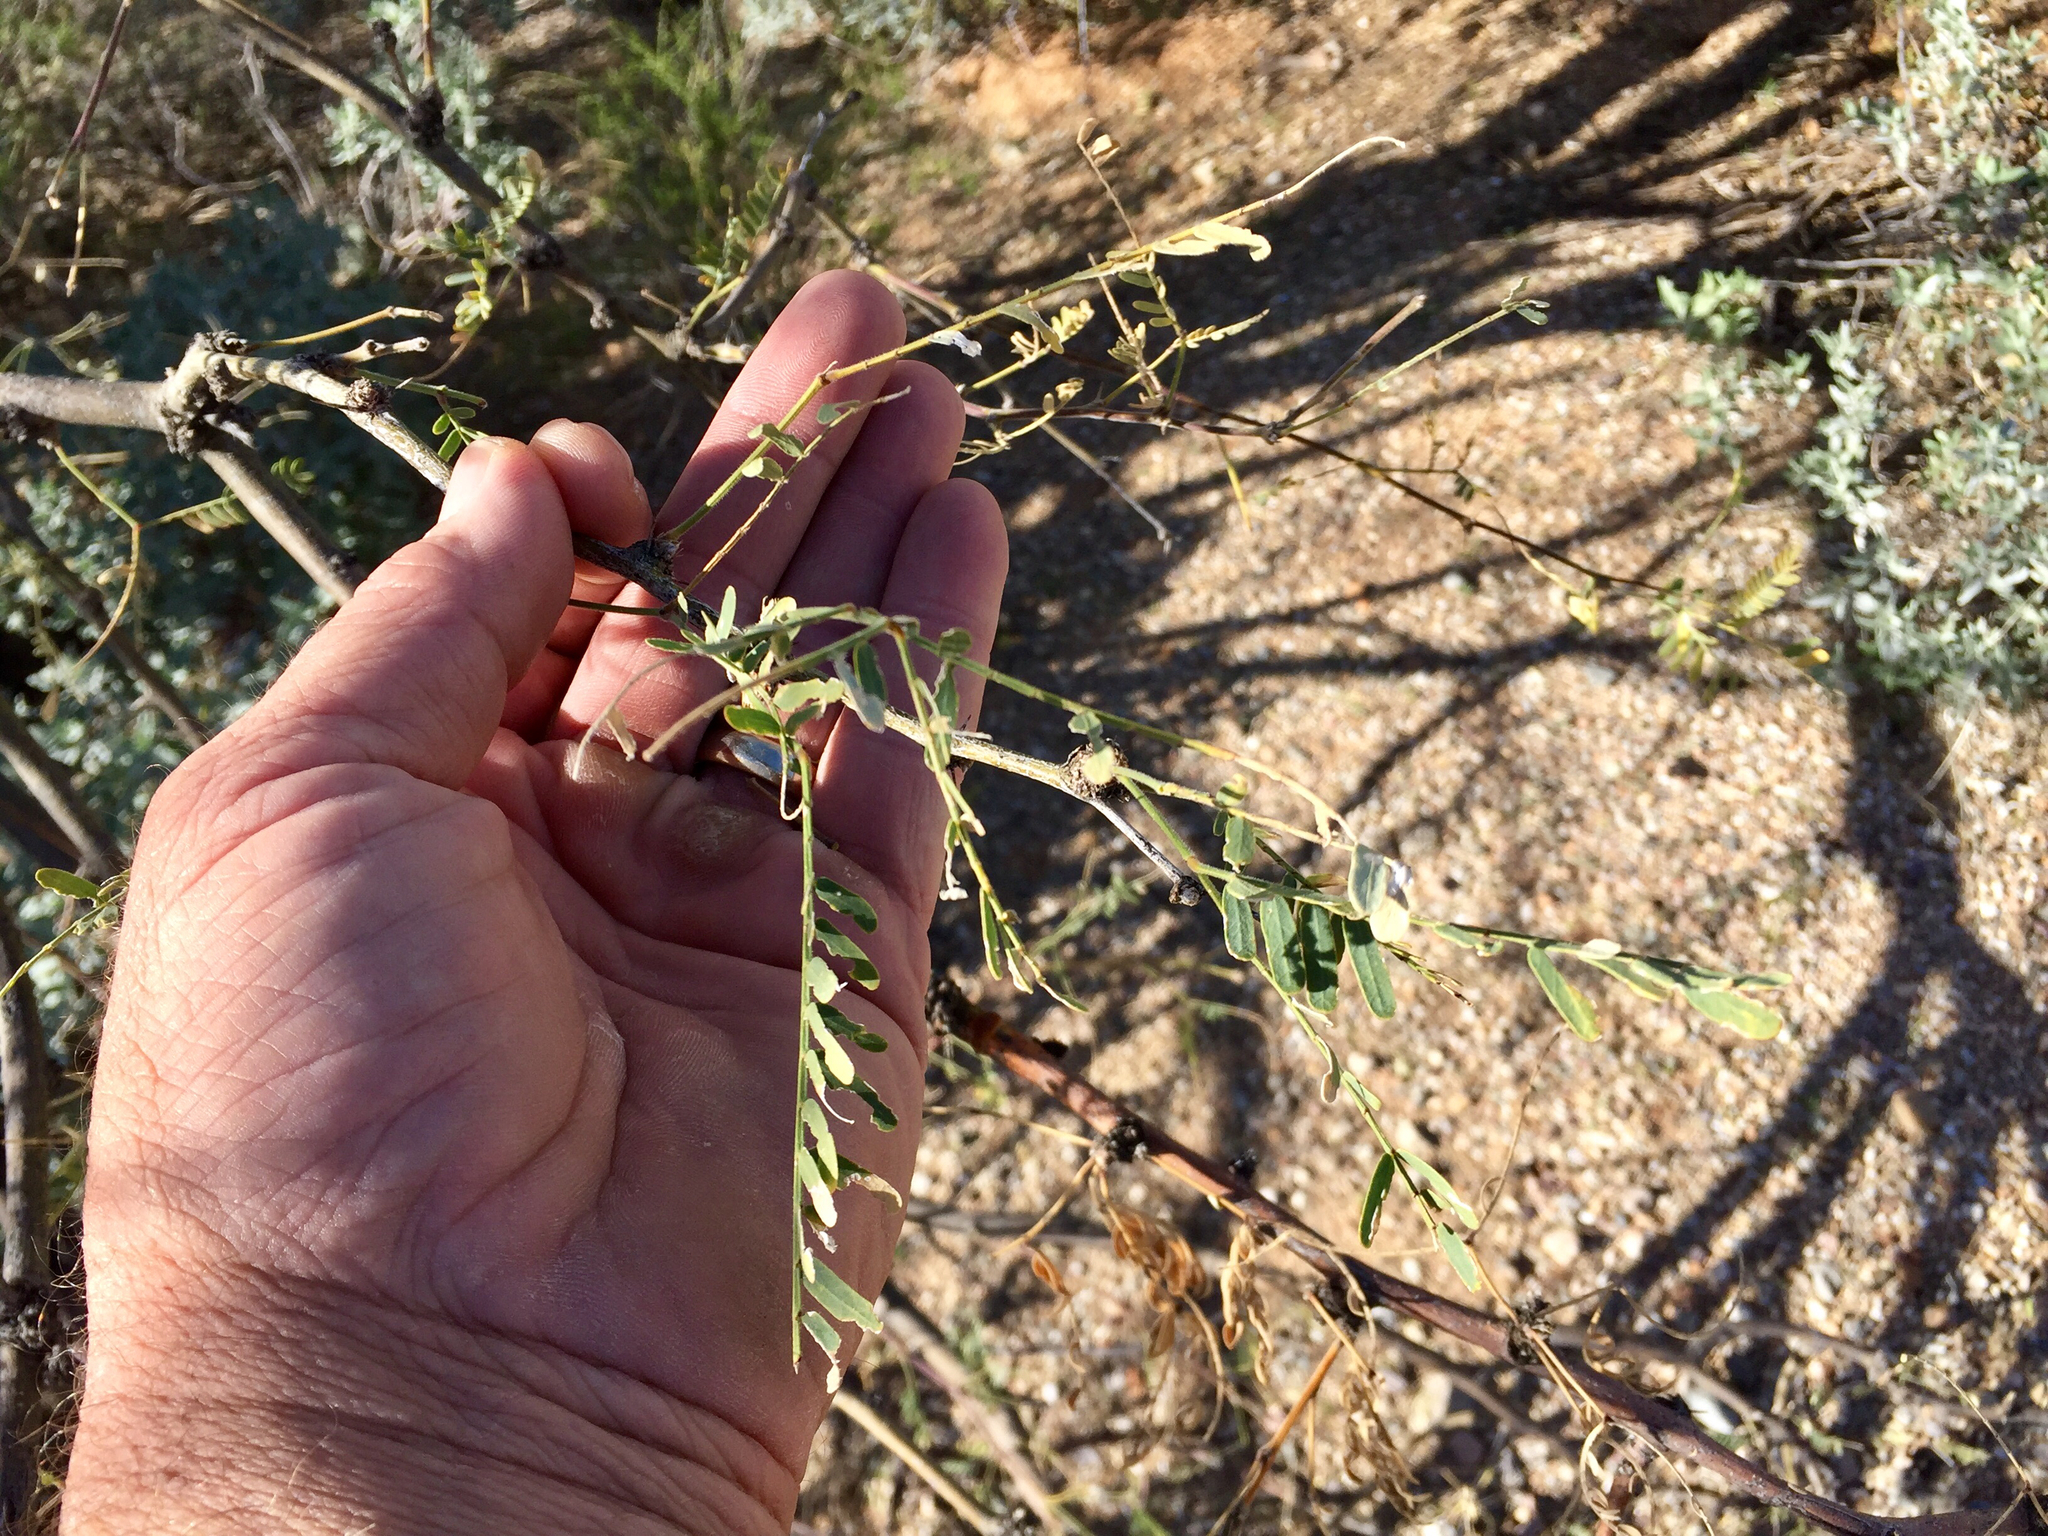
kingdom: Plantae
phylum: Tracheophyta
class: Magnoliopsida
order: Fabales
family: Fabaceae
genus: Prosopis
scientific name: Prosopis velutina
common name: Velvet mesquite
